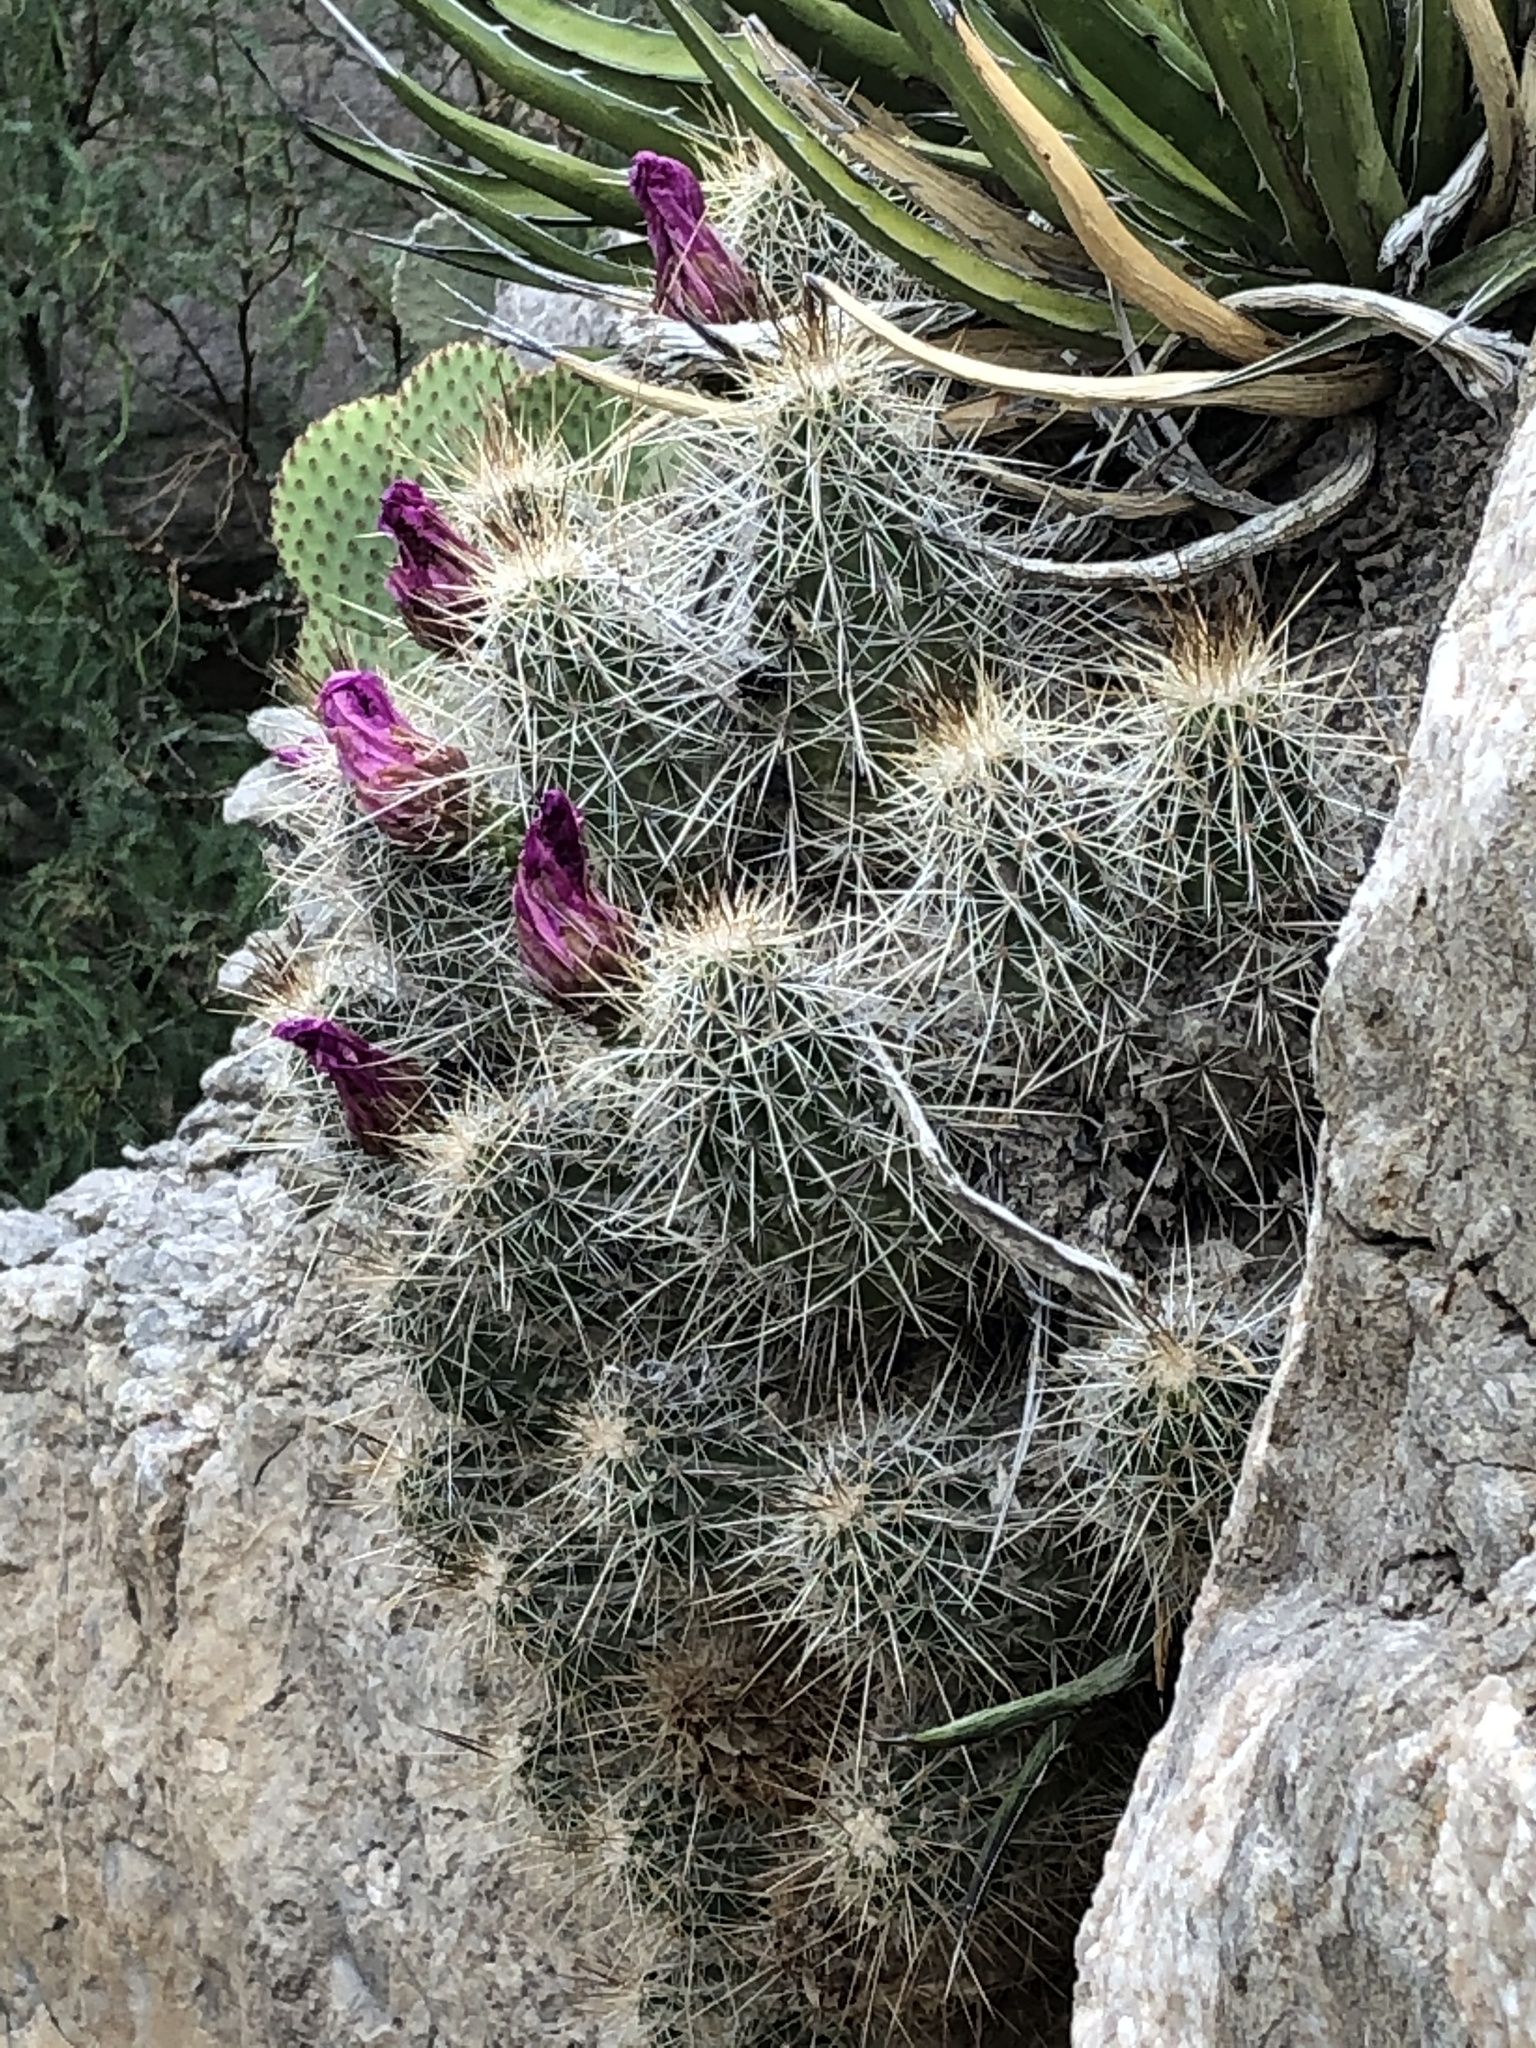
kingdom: Plantae
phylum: Tracheophyta
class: Magnoliopsida
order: Caryophyllales
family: Cactaceae
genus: Echinocereus
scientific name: Echinocereus stramineus
